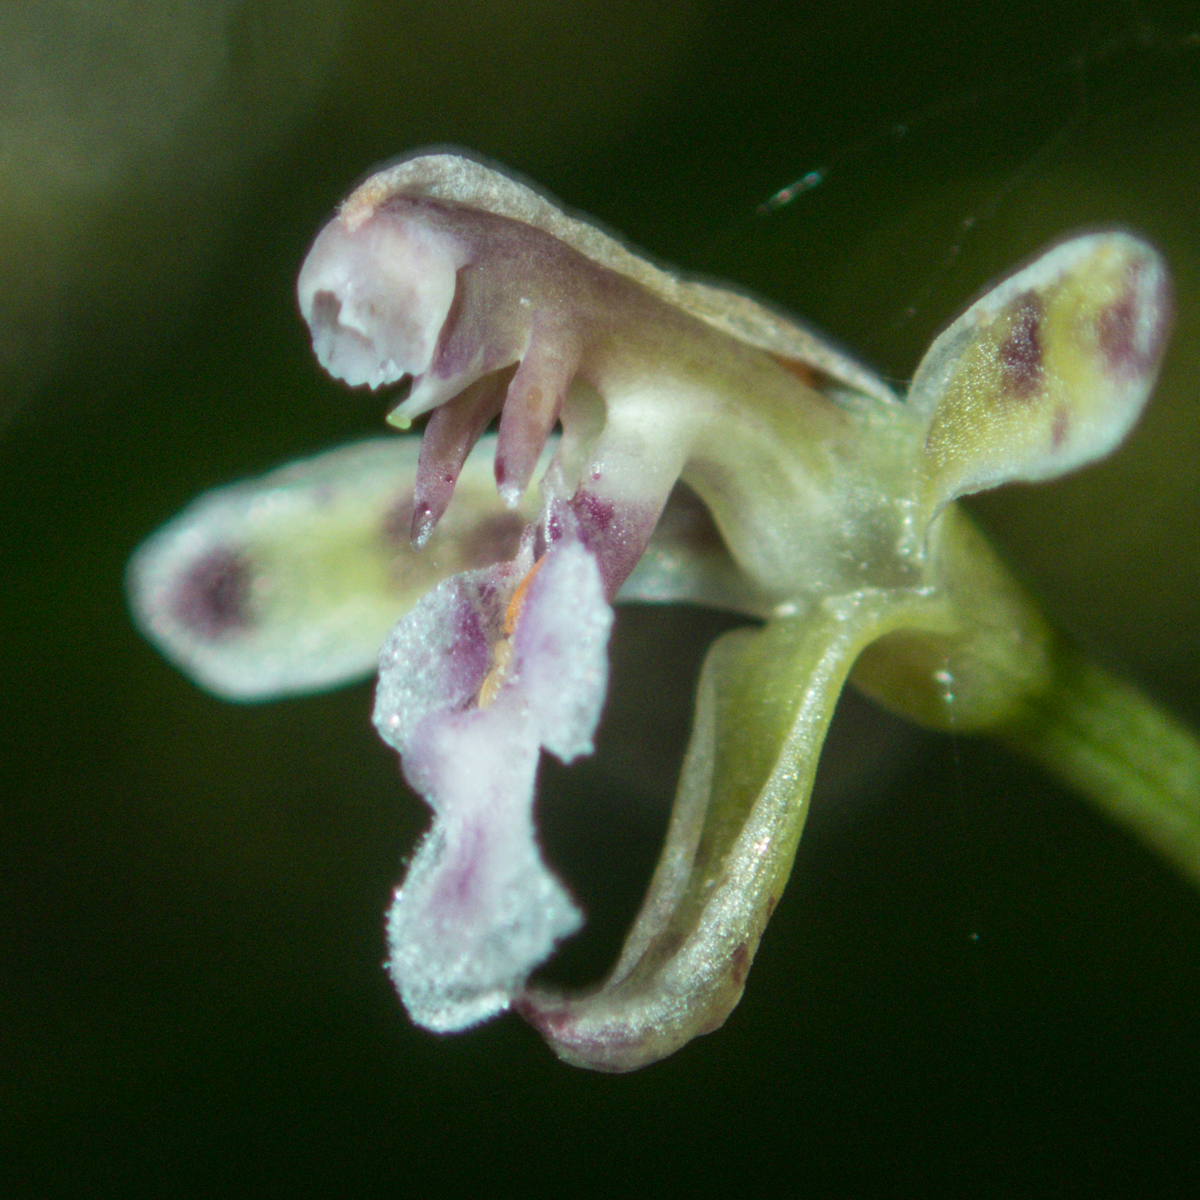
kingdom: Plantae
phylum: Tracheophyta
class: Liliopsida
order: Asparagales
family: Orchidaceae
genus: Acriopsis
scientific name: Acriopsis liliifolia
